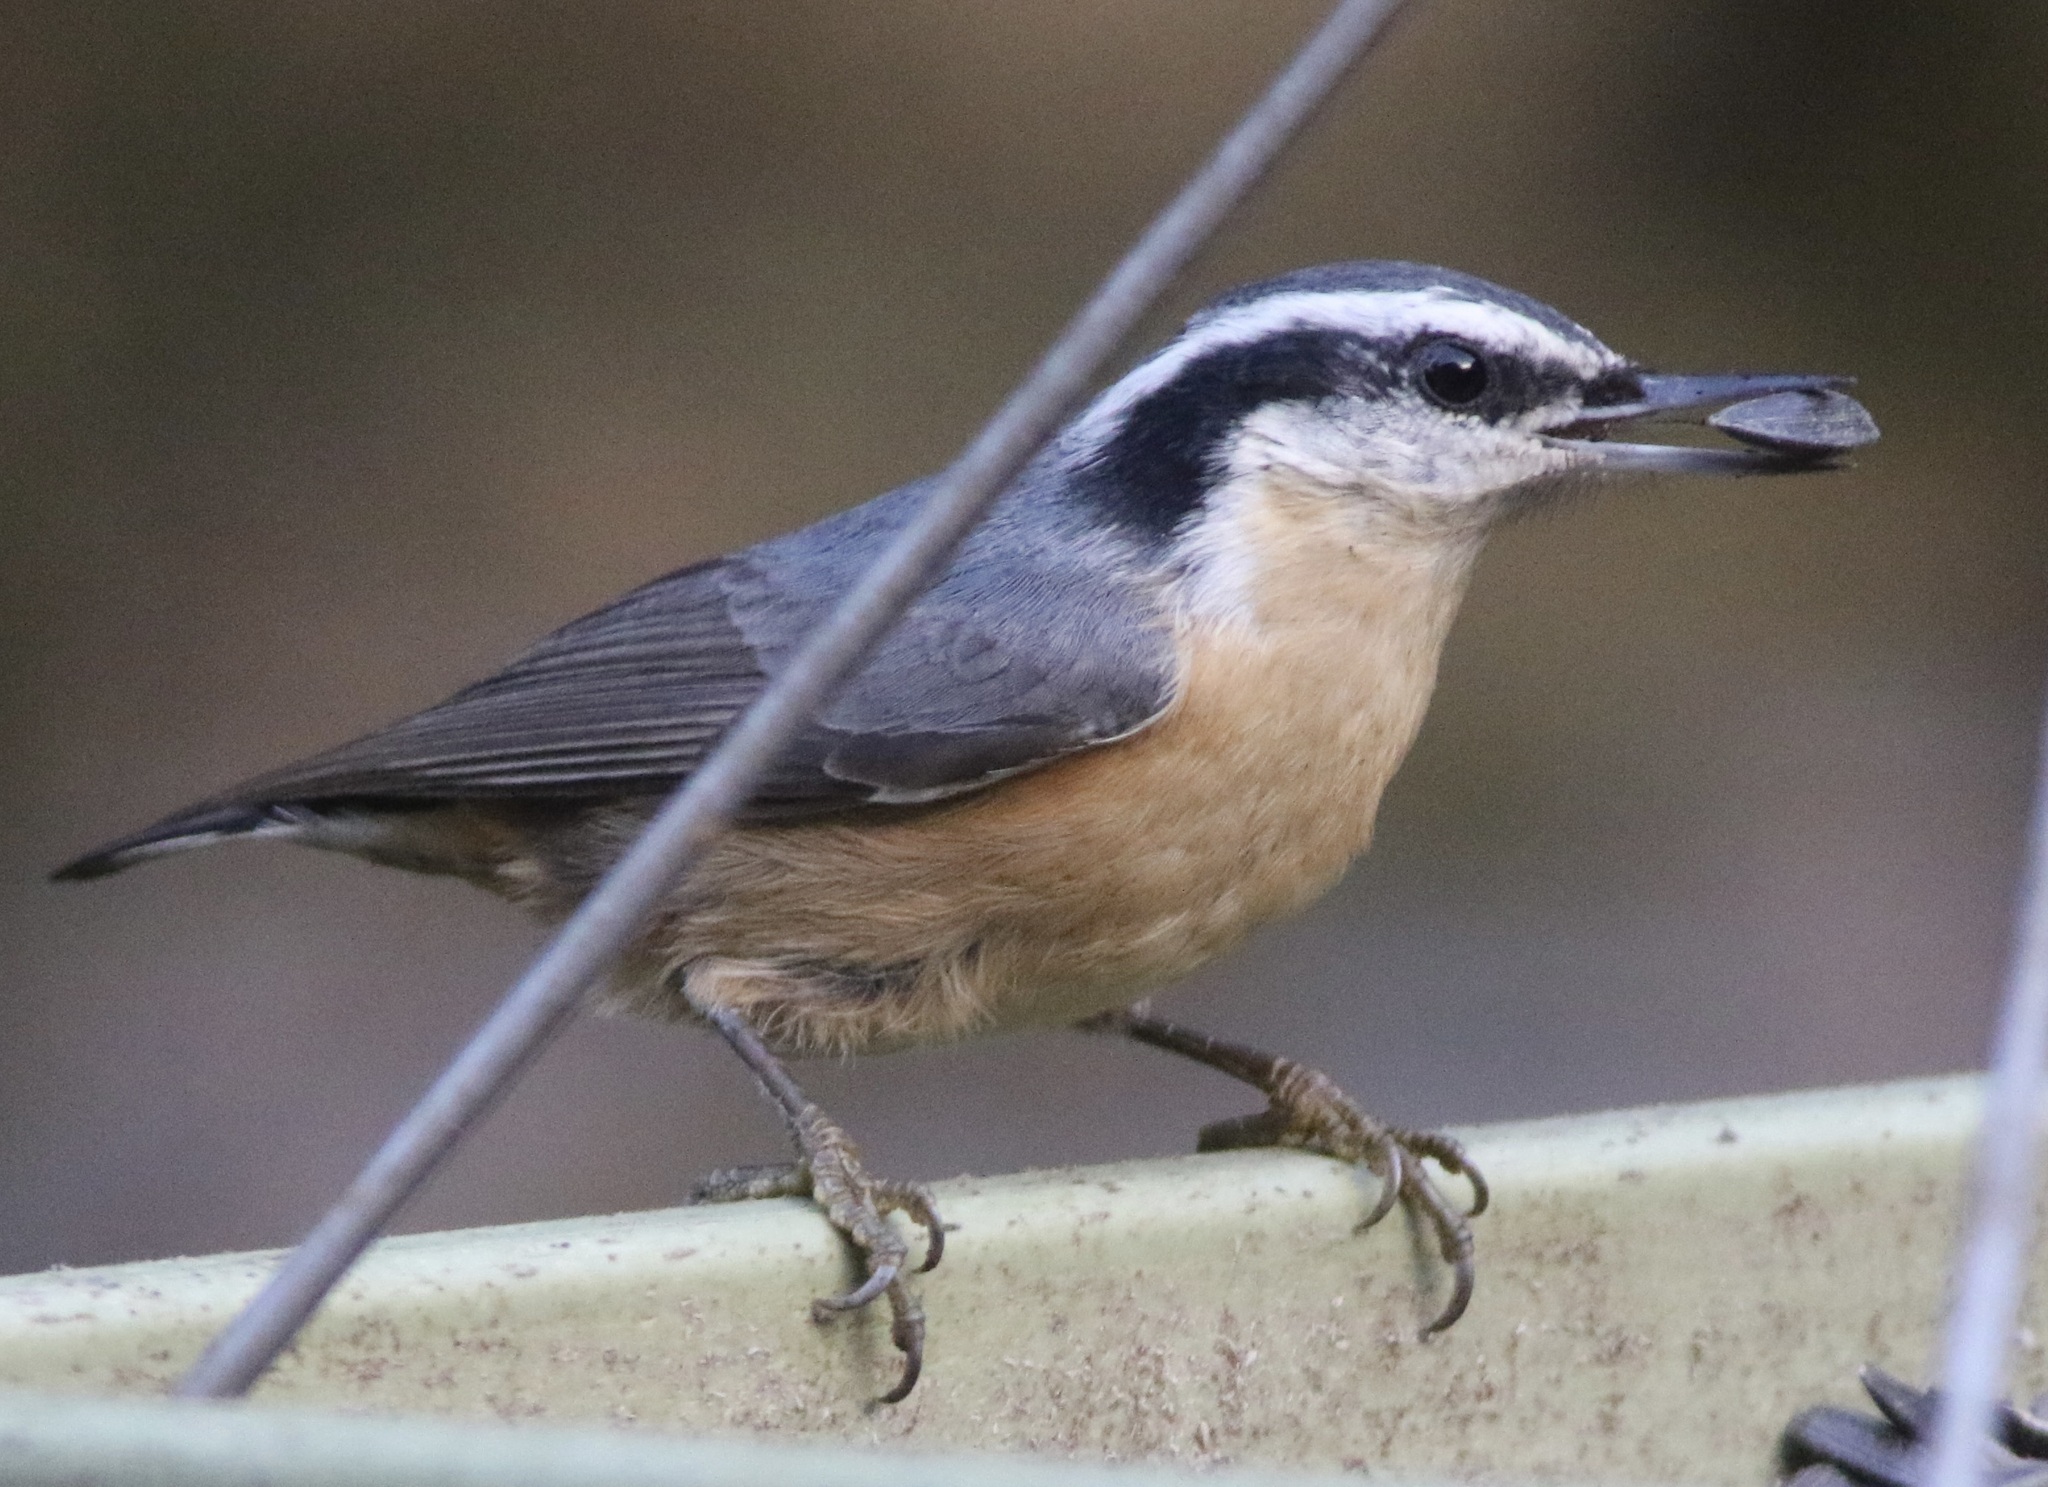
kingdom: Animalia
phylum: Chordata
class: Aves
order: Passeriformes
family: Sittidae
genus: Sitta
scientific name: Sitta canadensis
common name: Red-breasted nuthatch
